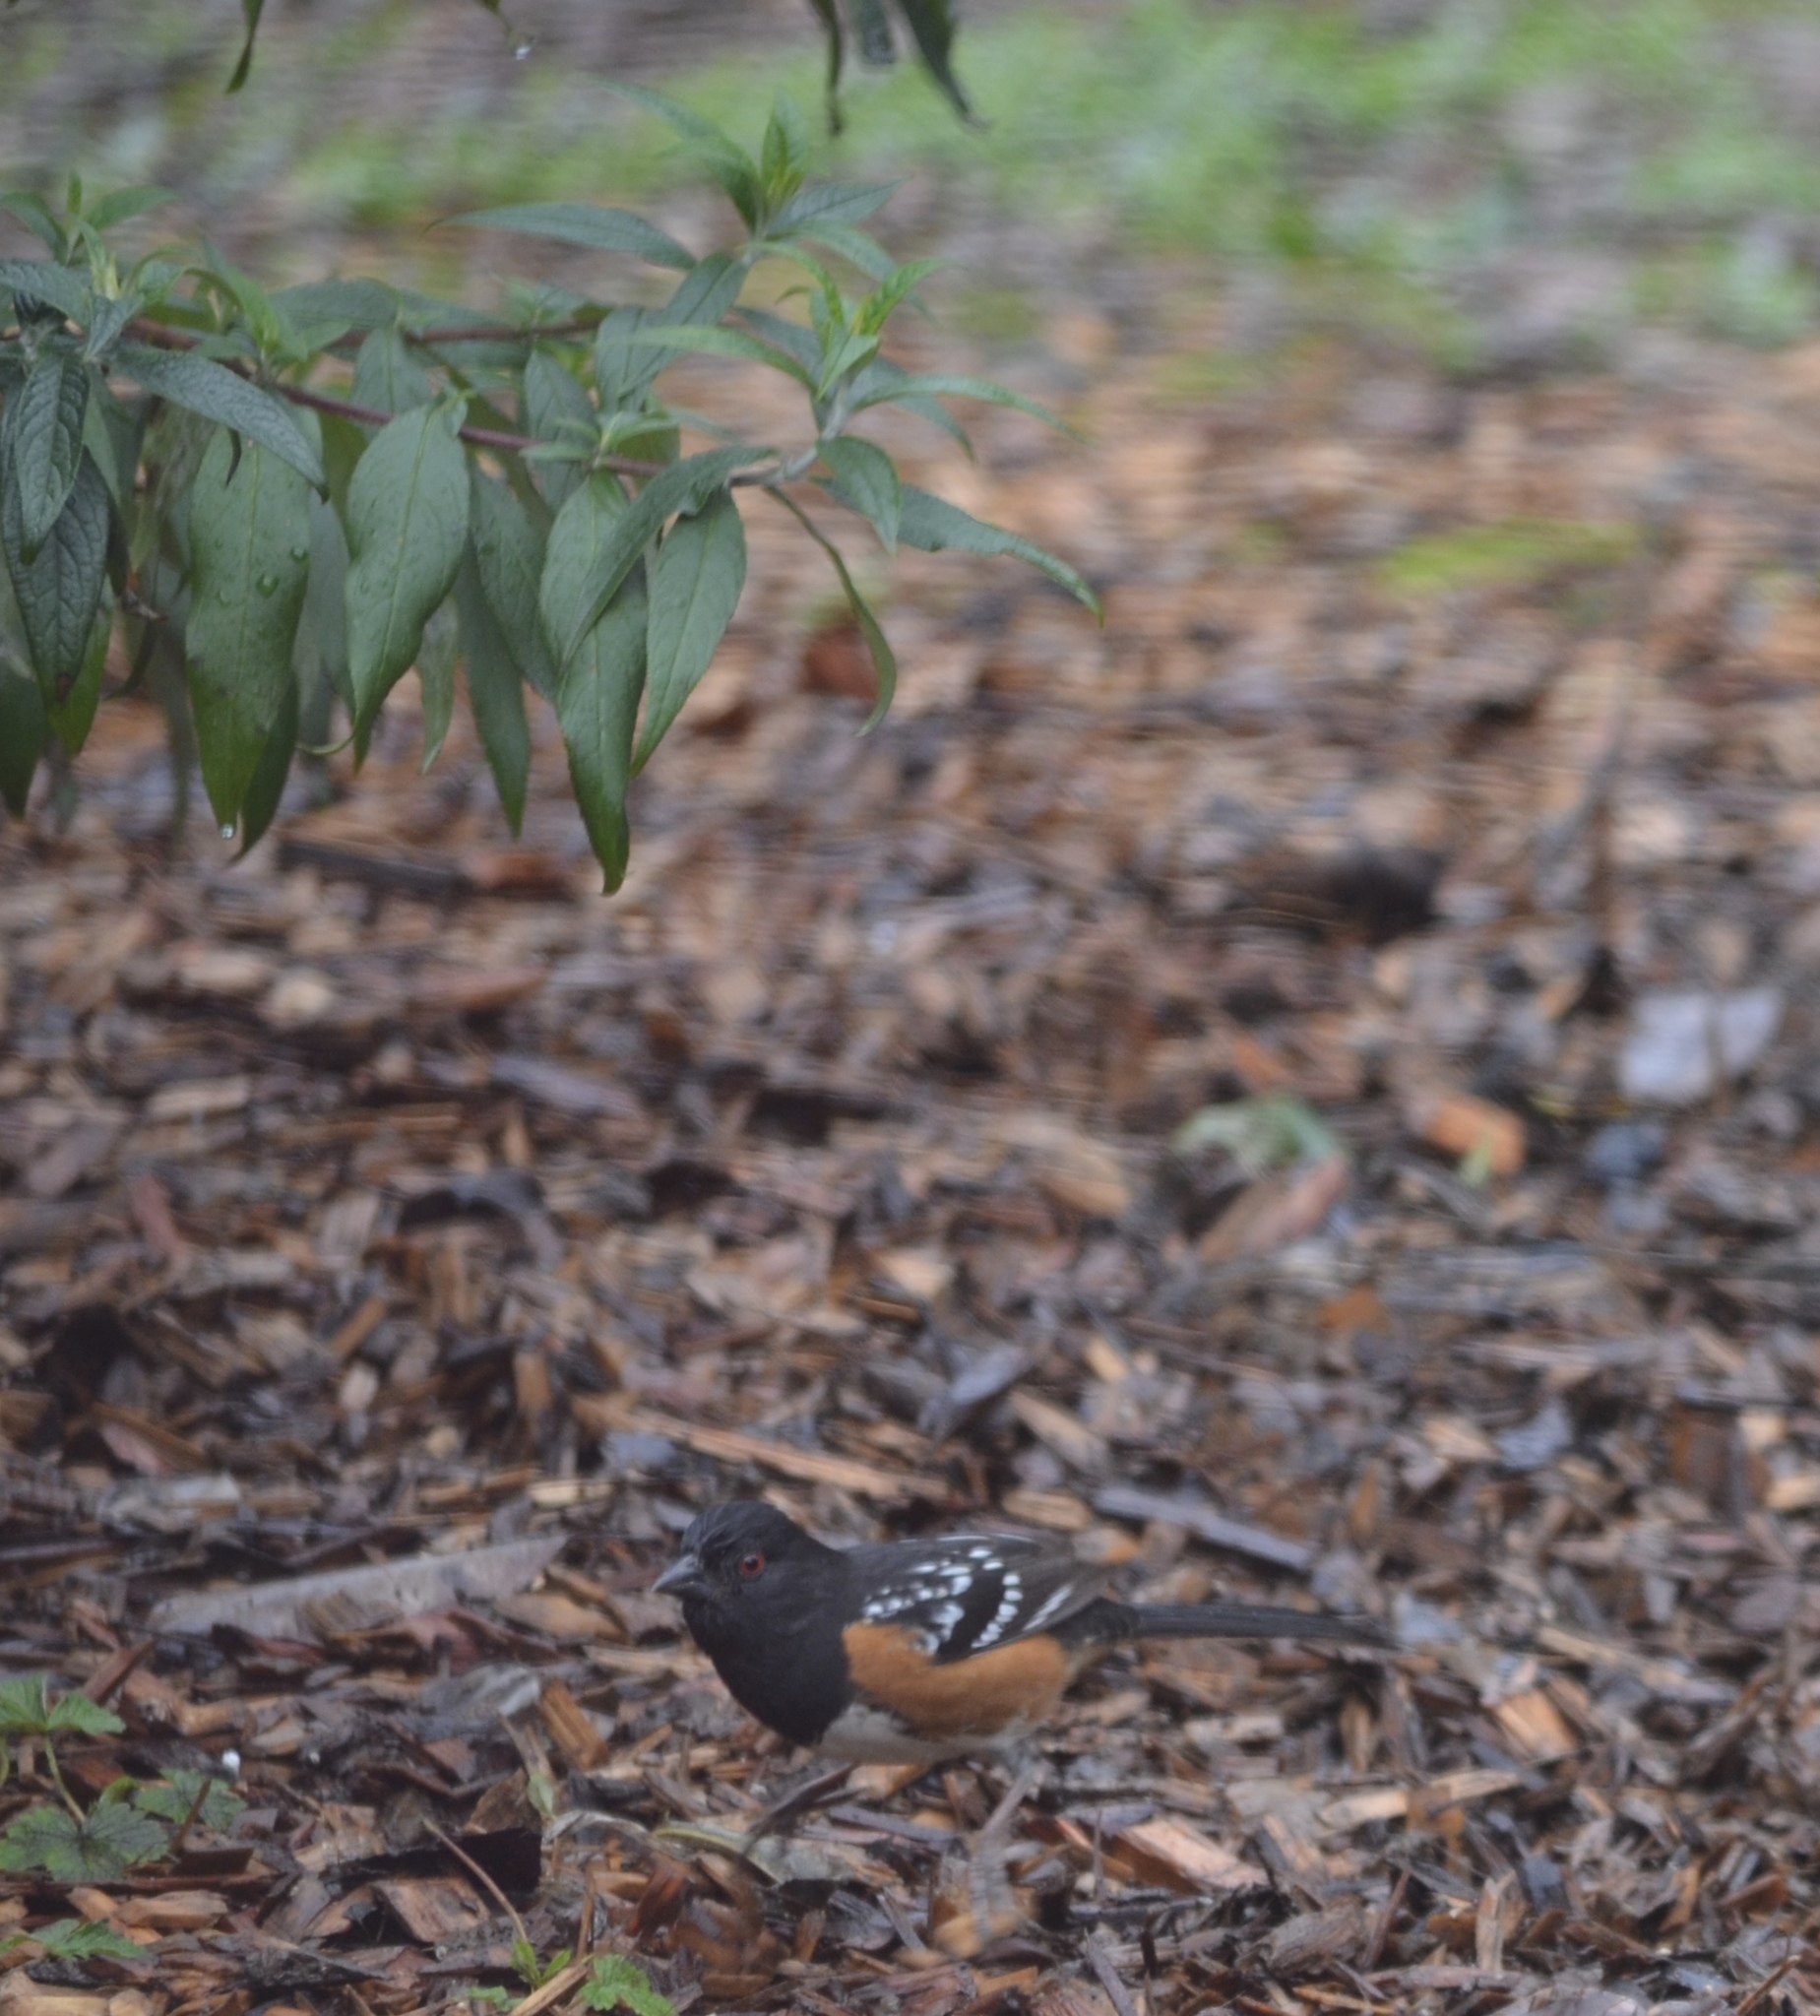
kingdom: Animalia
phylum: Chordata
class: Aves
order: Passeriformes
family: Passerellidae
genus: Pipilo
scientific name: Pipilo maculatus
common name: Spotted towhee
